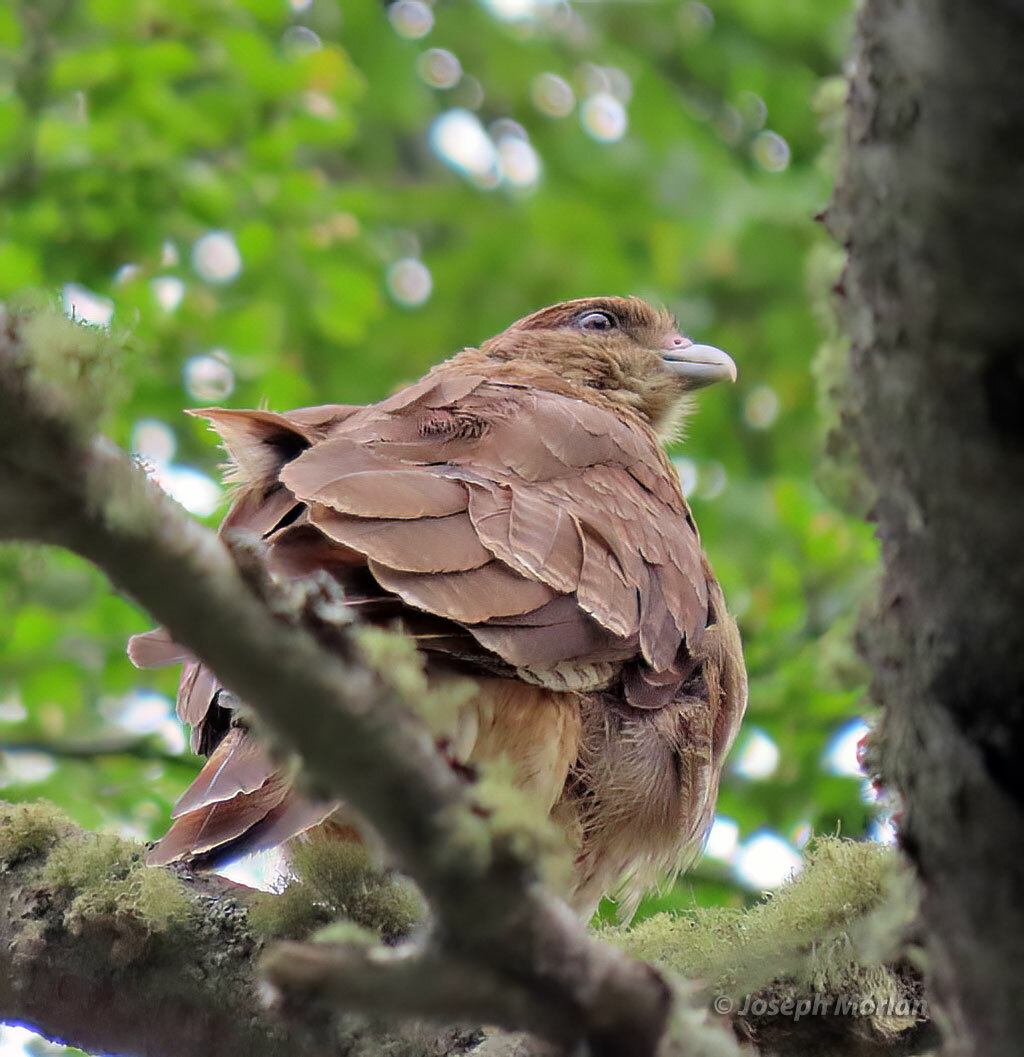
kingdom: Animalia
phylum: Chordata
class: Aves
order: Falconiformes
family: Falconidae
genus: Daptrius
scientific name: Daptrius
